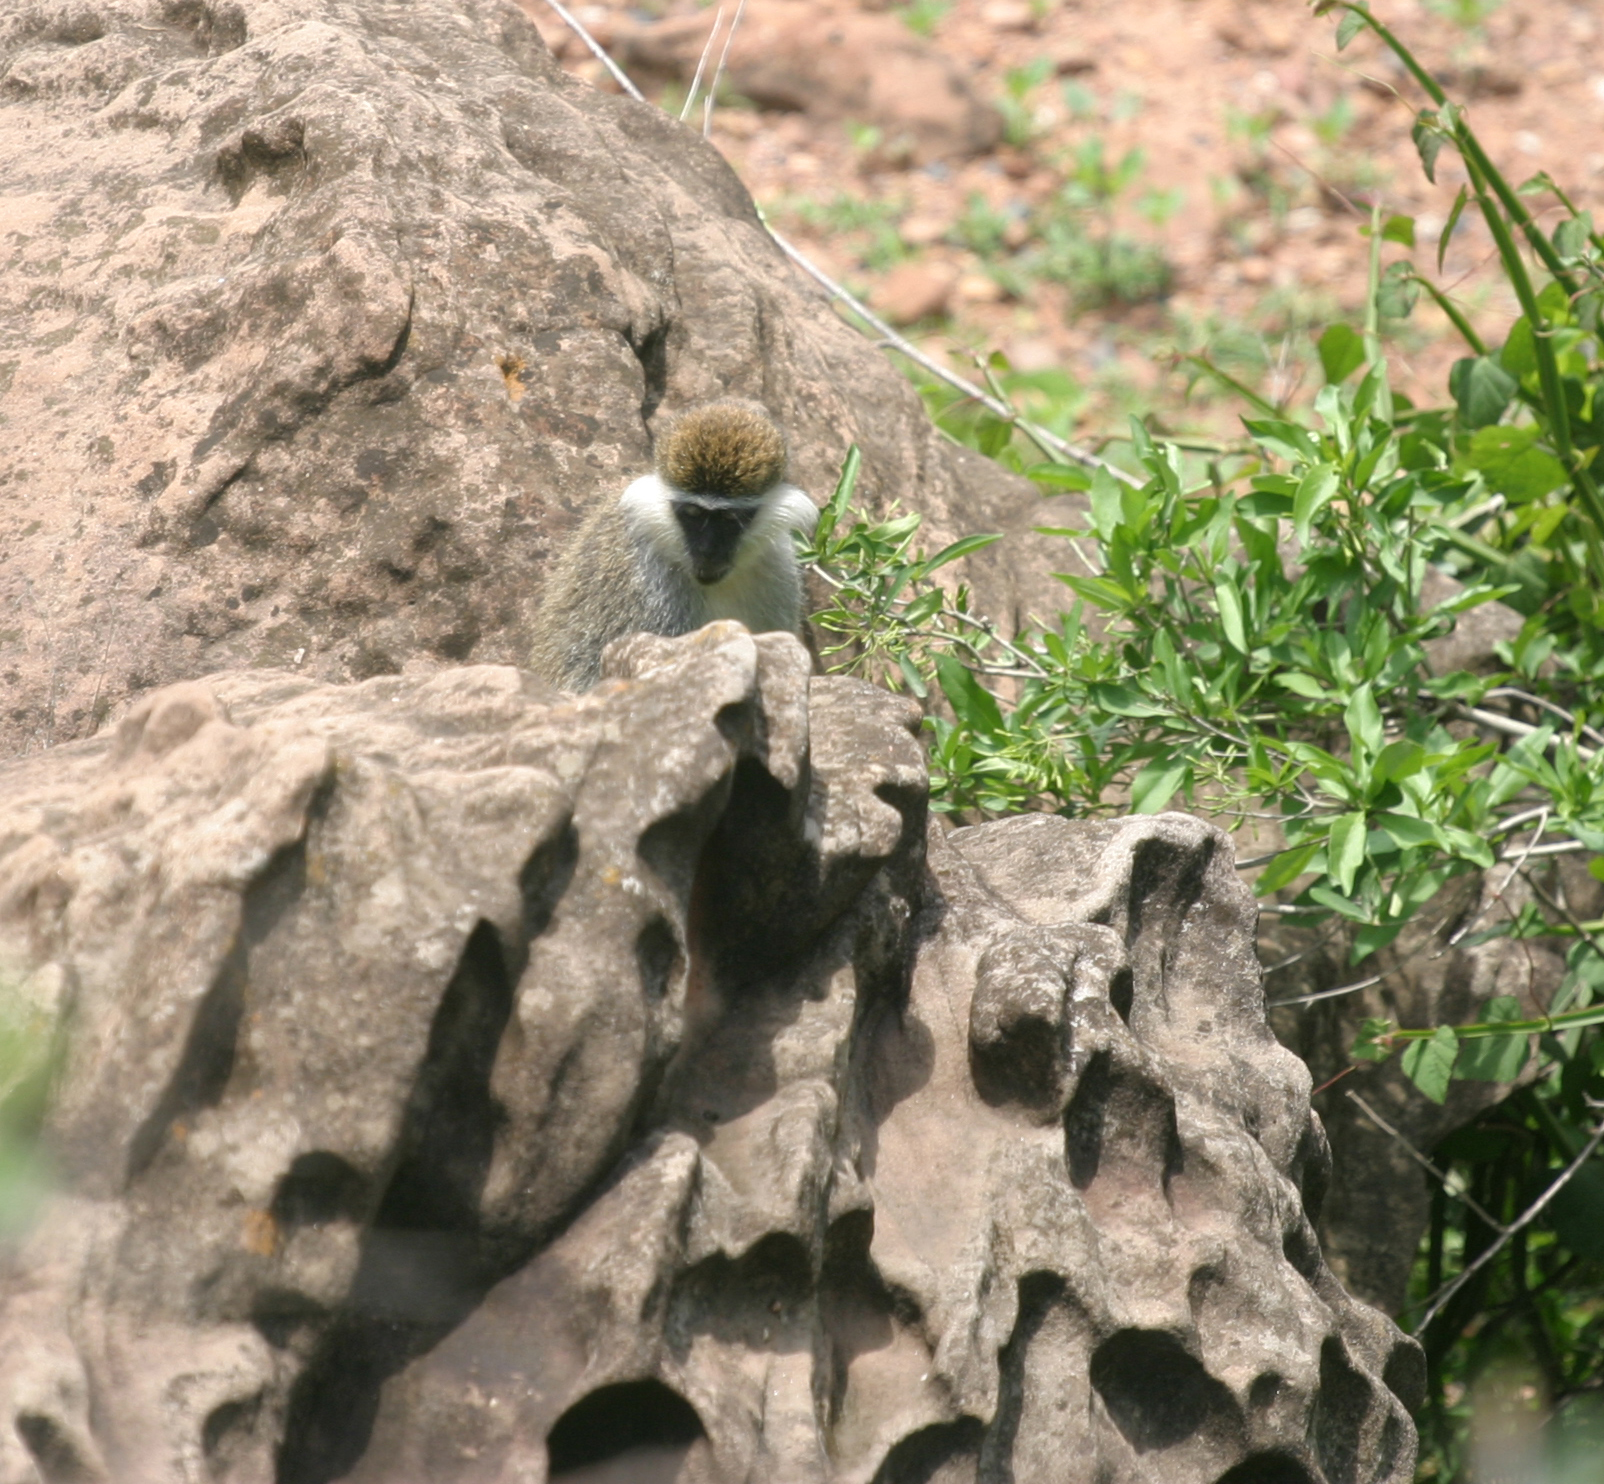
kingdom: Animalia
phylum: Chordata
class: Mammalia
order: Primates
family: Cercopithecidae
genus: Chlorocebus
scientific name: Chlorocebus aethiops
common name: Grivet
